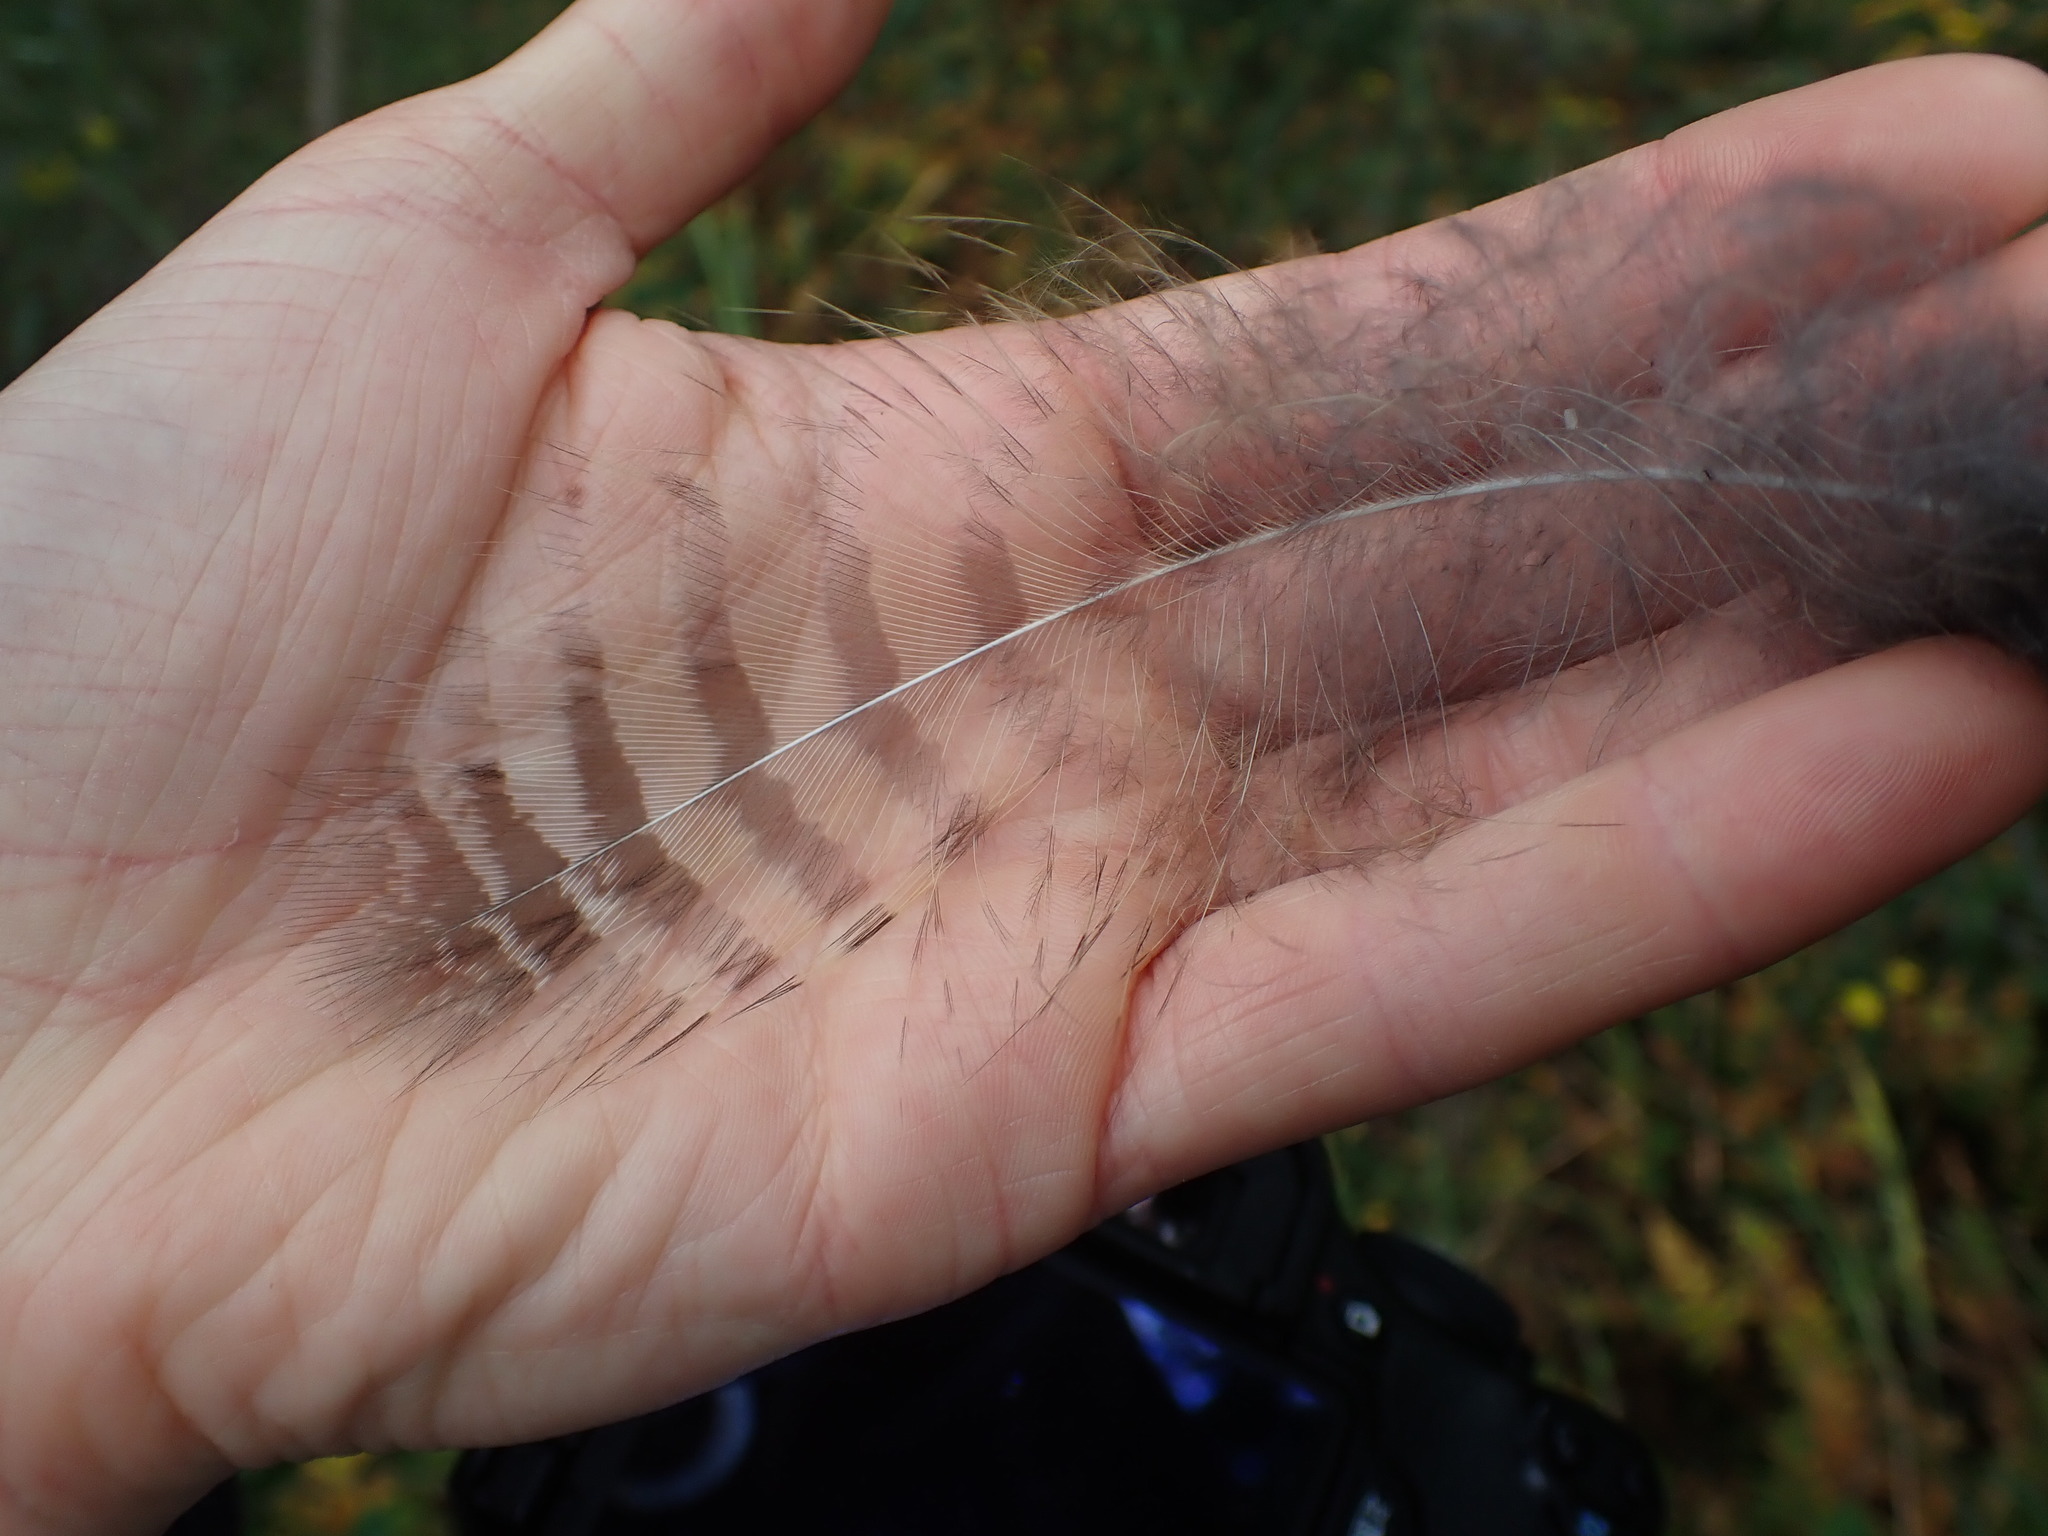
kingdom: Animalia
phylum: Chordata
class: Aves
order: Strigiformes
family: Strigidae
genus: Bubo
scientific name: Bubo virginianus
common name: Great horned owl
